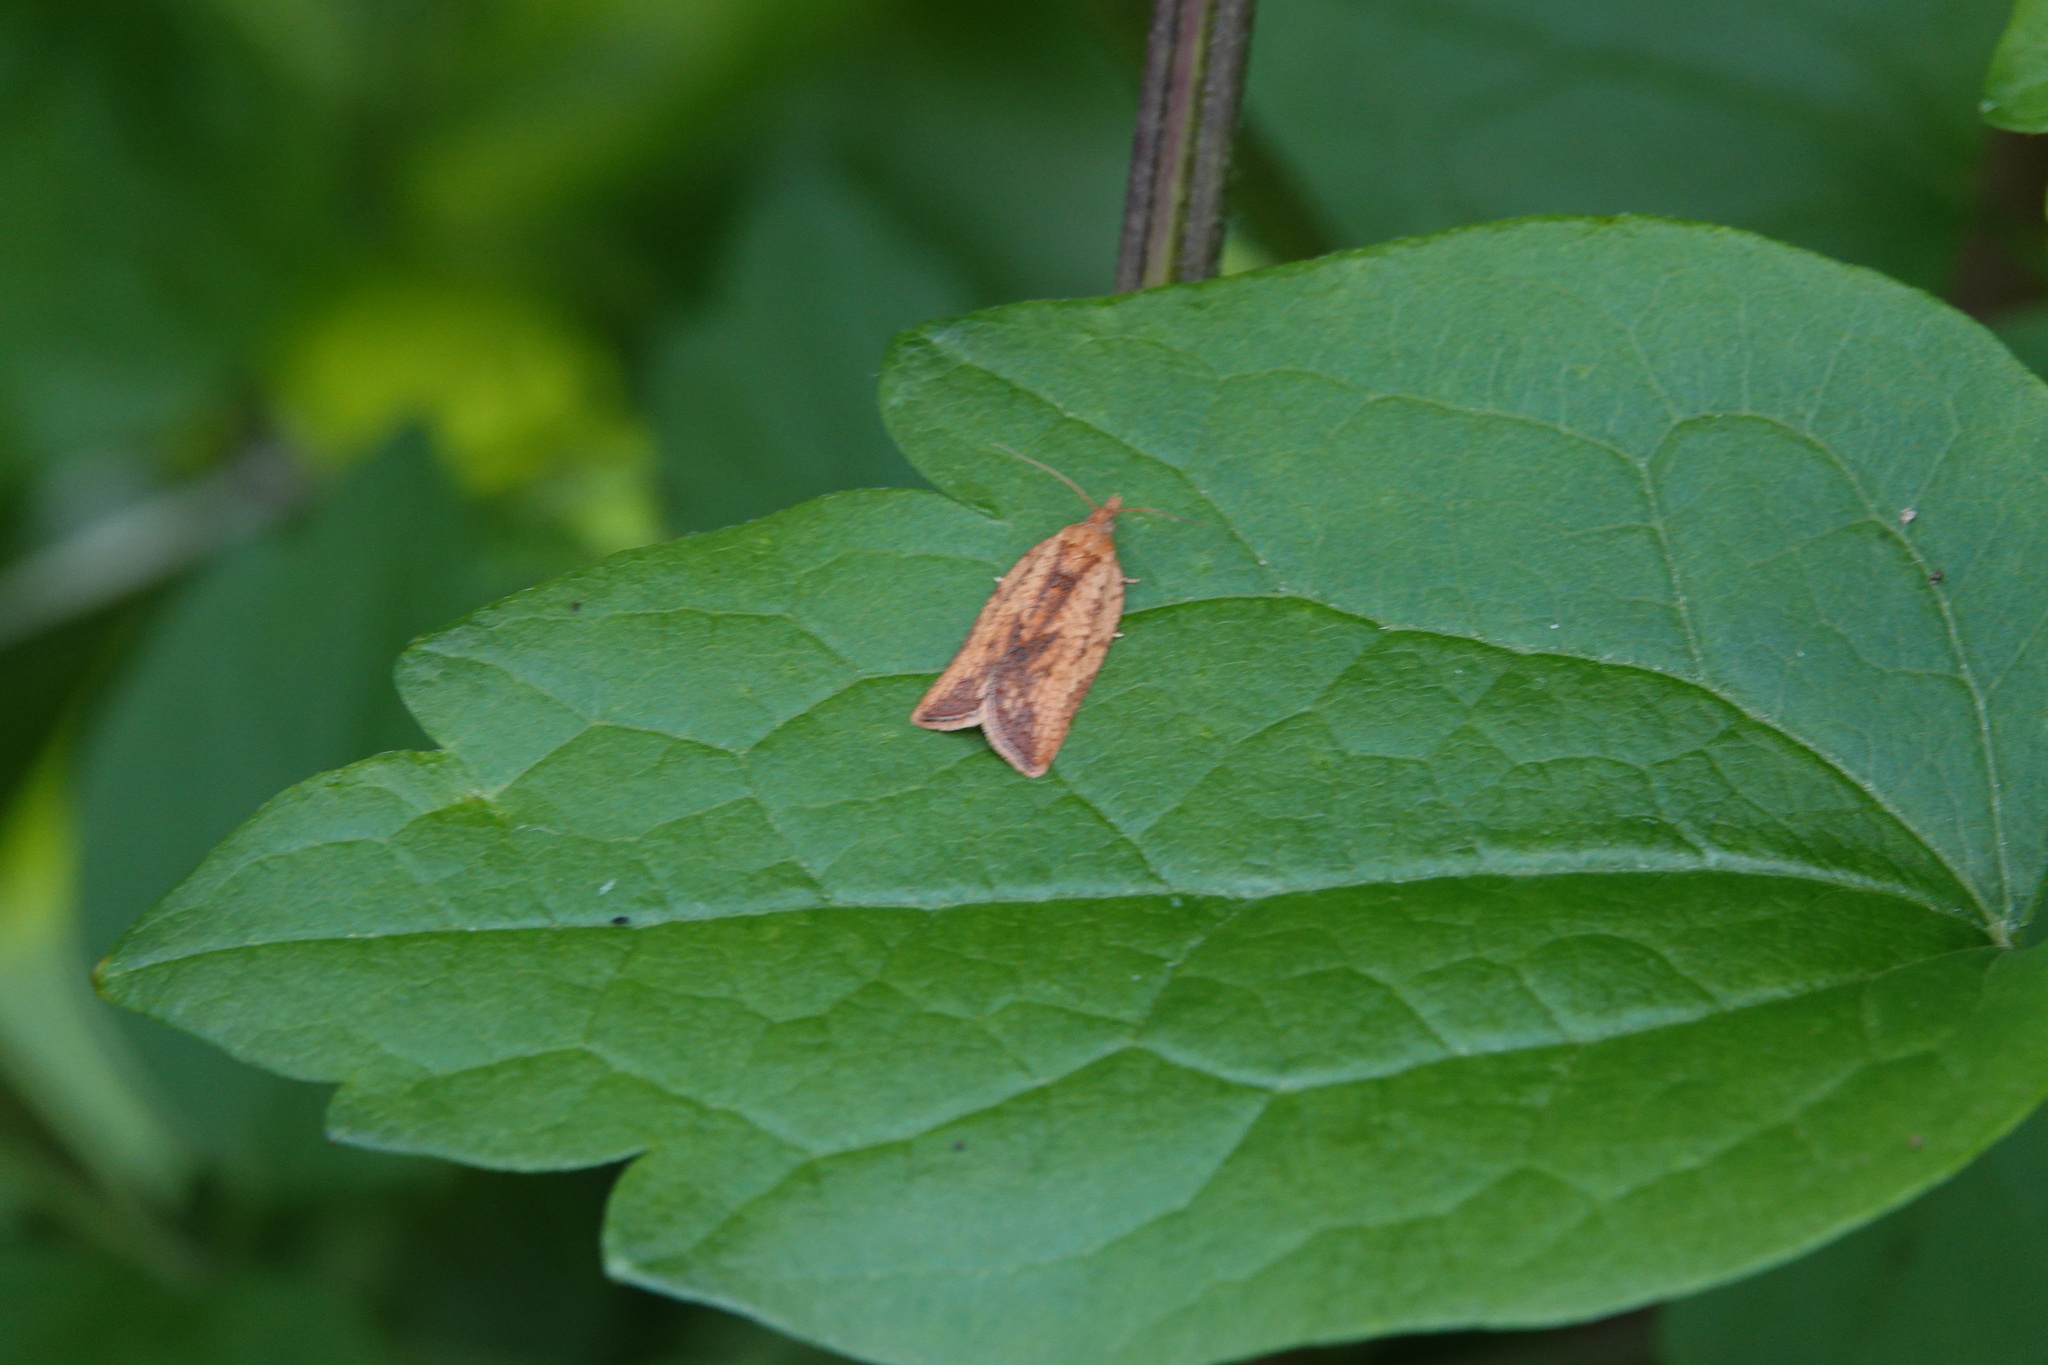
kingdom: Animalia
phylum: Arthropoda
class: Insecta
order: Lepidoptera
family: Tortricidae
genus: Epiphyas
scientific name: Epiphyas postvittana
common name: Light brown apple moth
